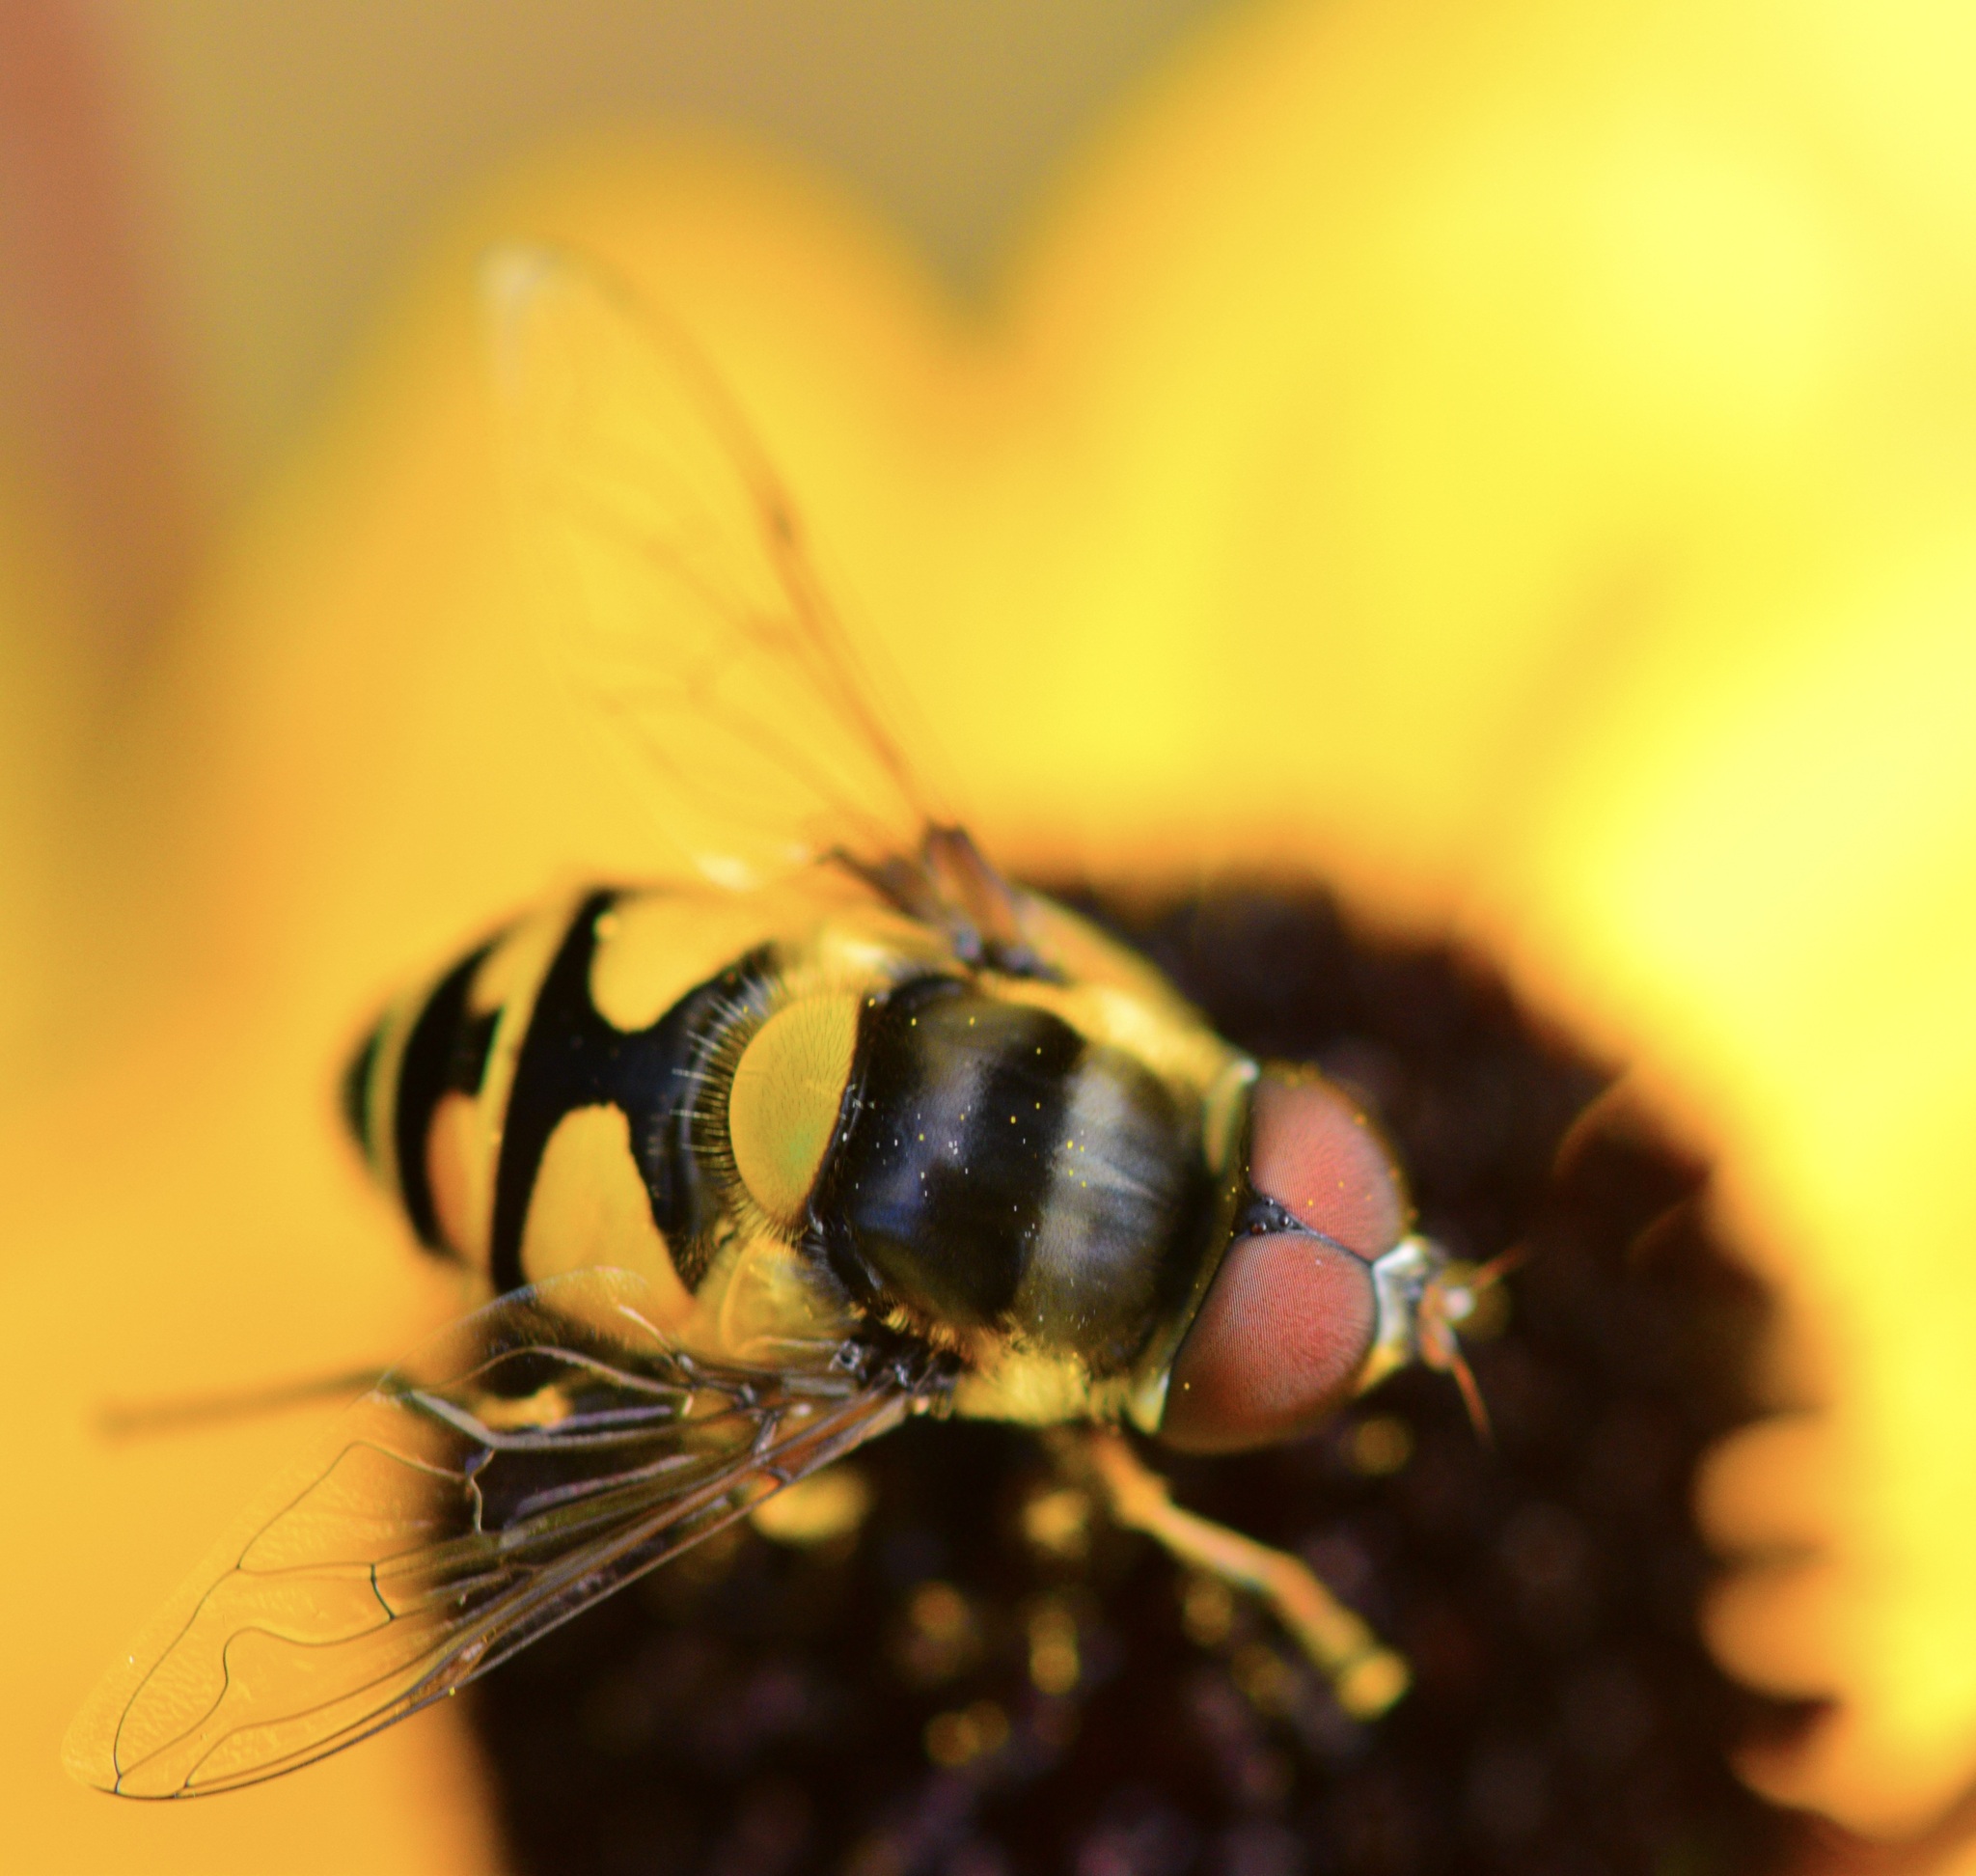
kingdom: Animalia
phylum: Arthropoda
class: Insecta
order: Diptera
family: Syrphidae
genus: Eristalis
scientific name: Eristalis transversa
